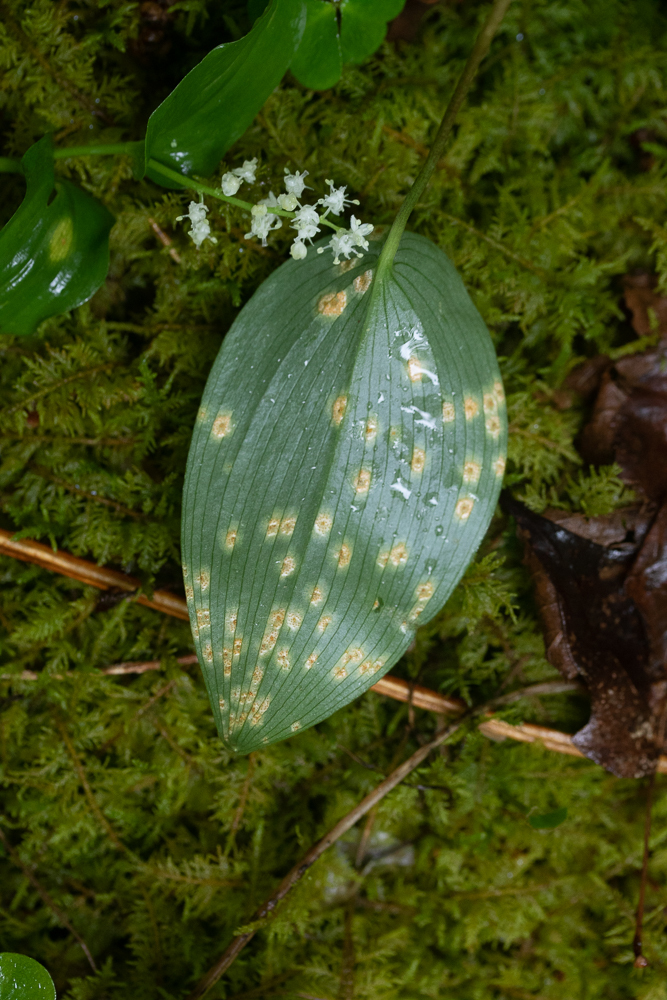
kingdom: Fungi
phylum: Basidiomycota
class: Pucciniomycetes
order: Pucciniales
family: Endoraeciaceae
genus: Endoraecium
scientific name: Endoraecium phyllodiorum
